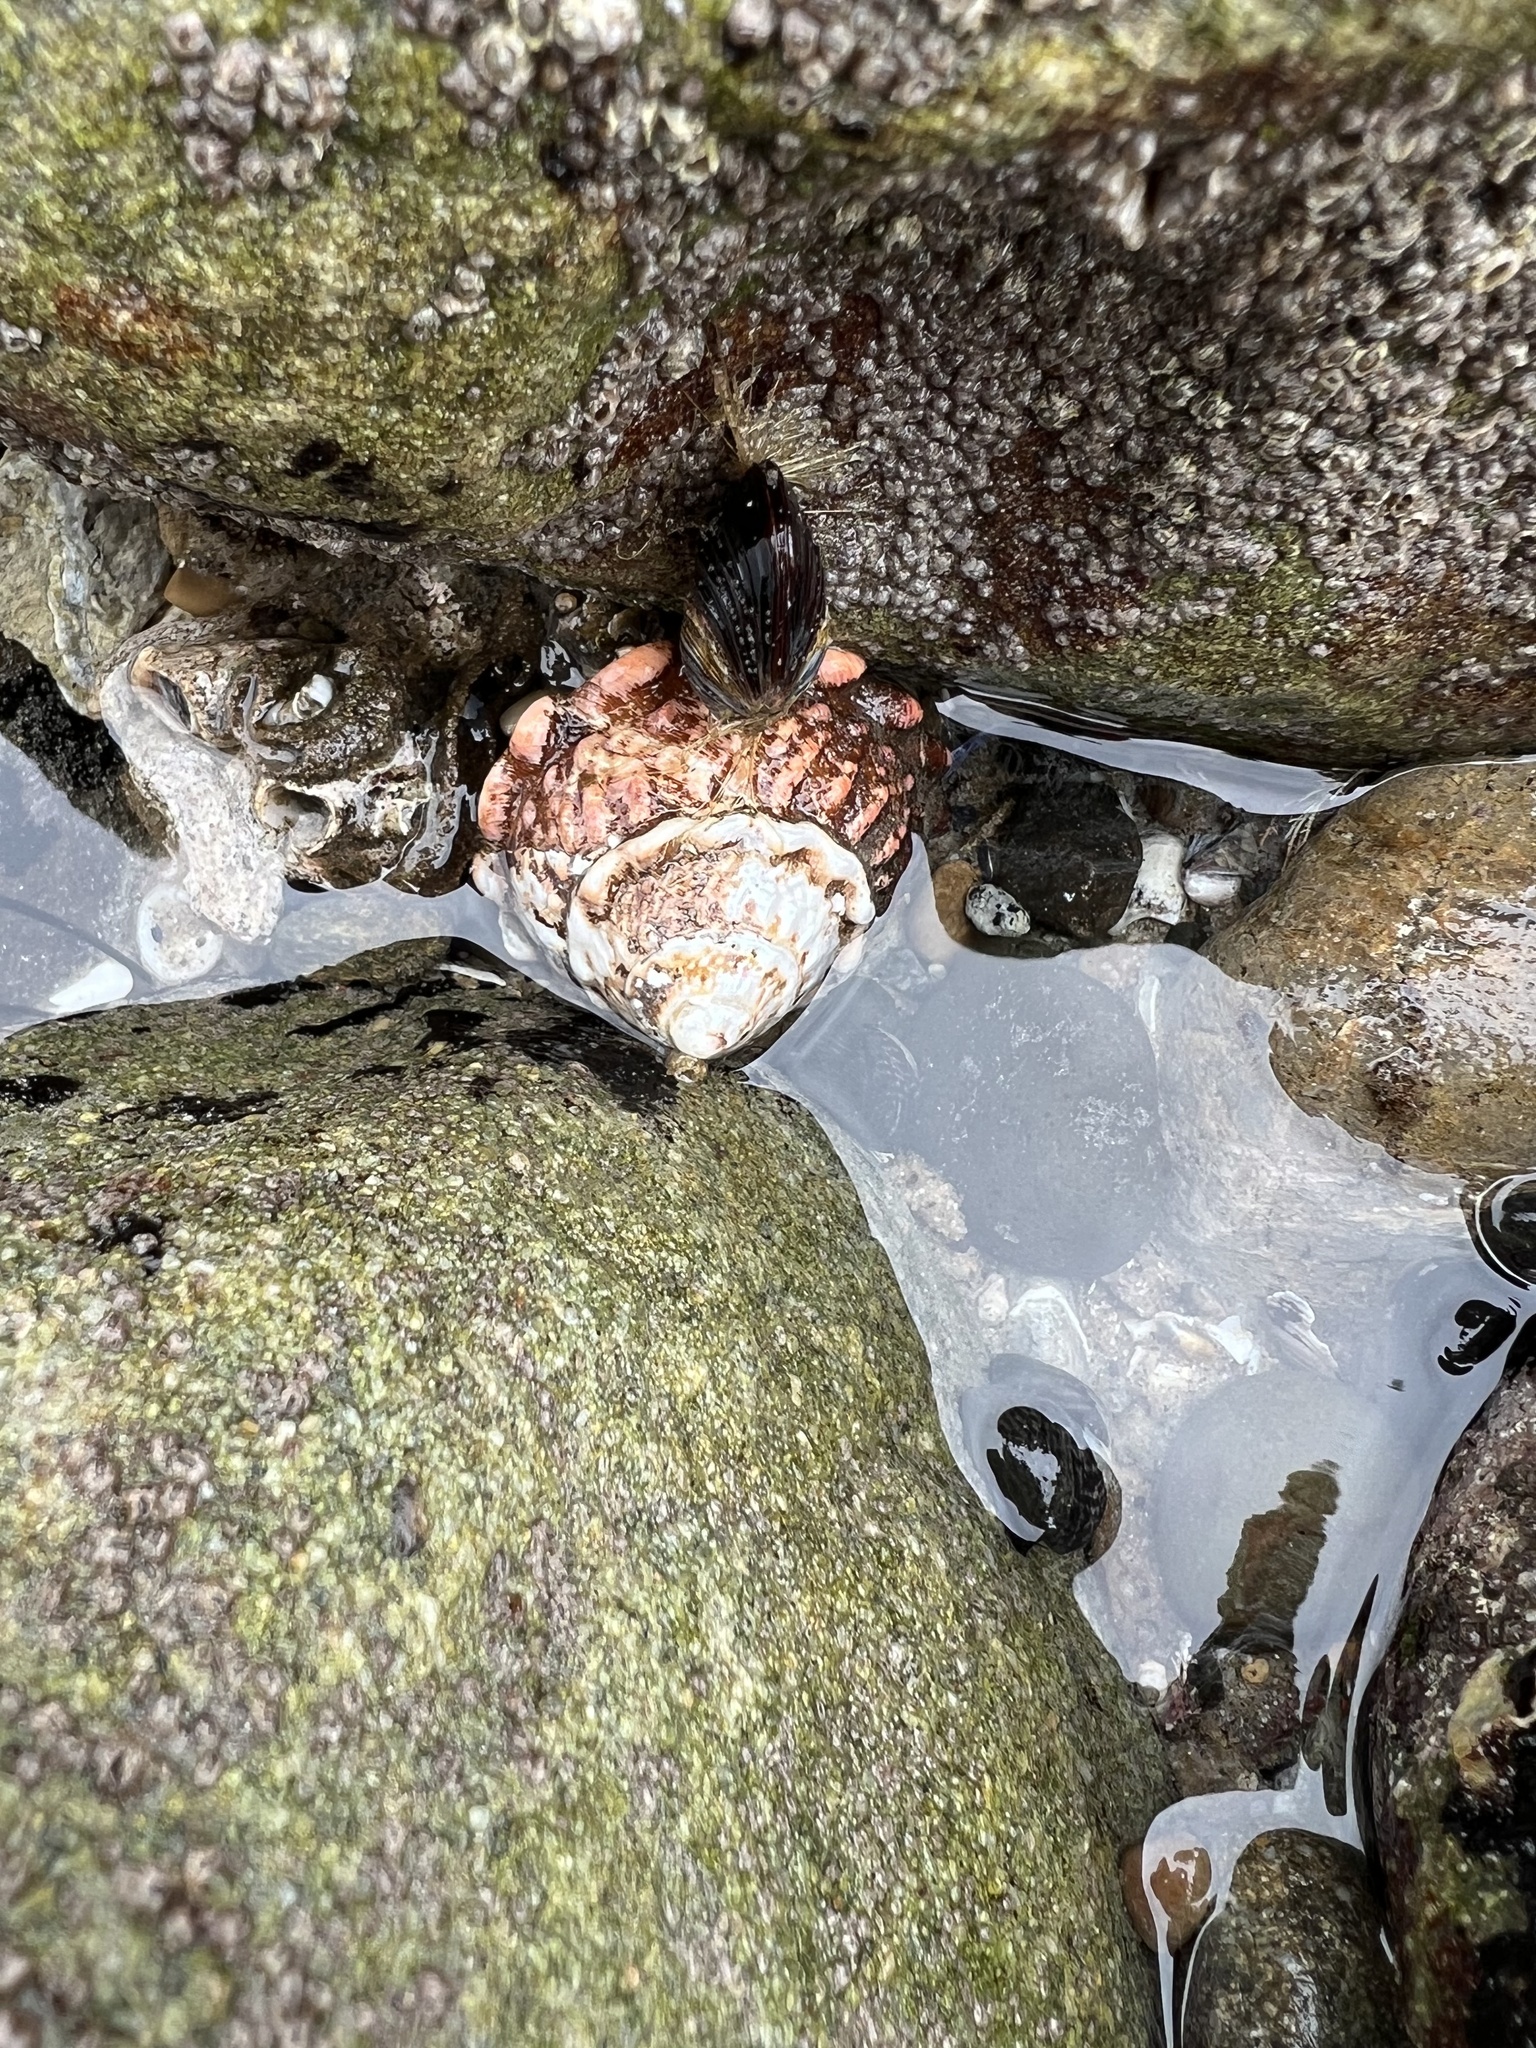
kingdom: Animalia
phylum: Mollusca
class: Gastropoda
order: Trochida
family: Turbinidae
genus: Megastraea
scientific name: Megastraea undosa
